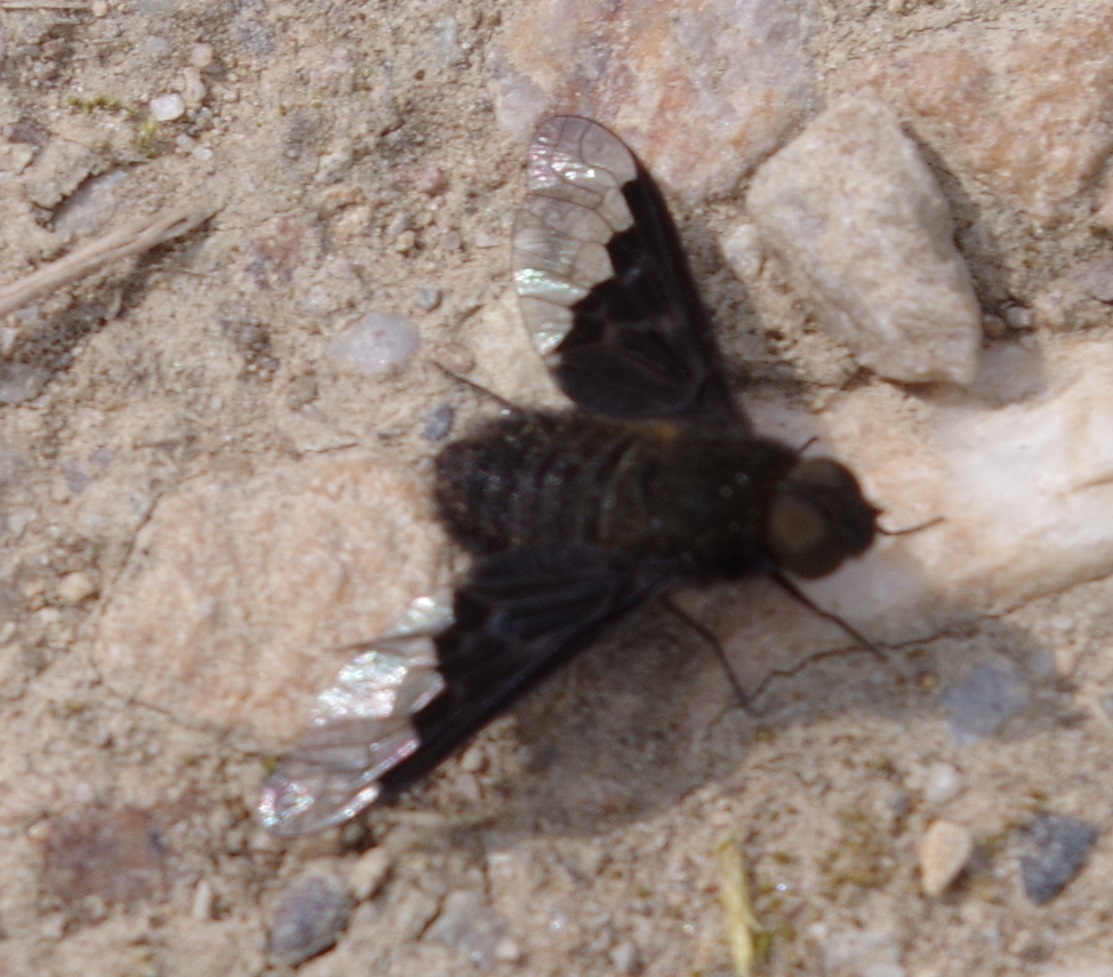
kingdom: Animalia
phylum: Arthropoda
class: Insecta
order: Diptera
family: Bombyliidae
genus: Hemipenthes
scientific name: Hemipenthes morio
